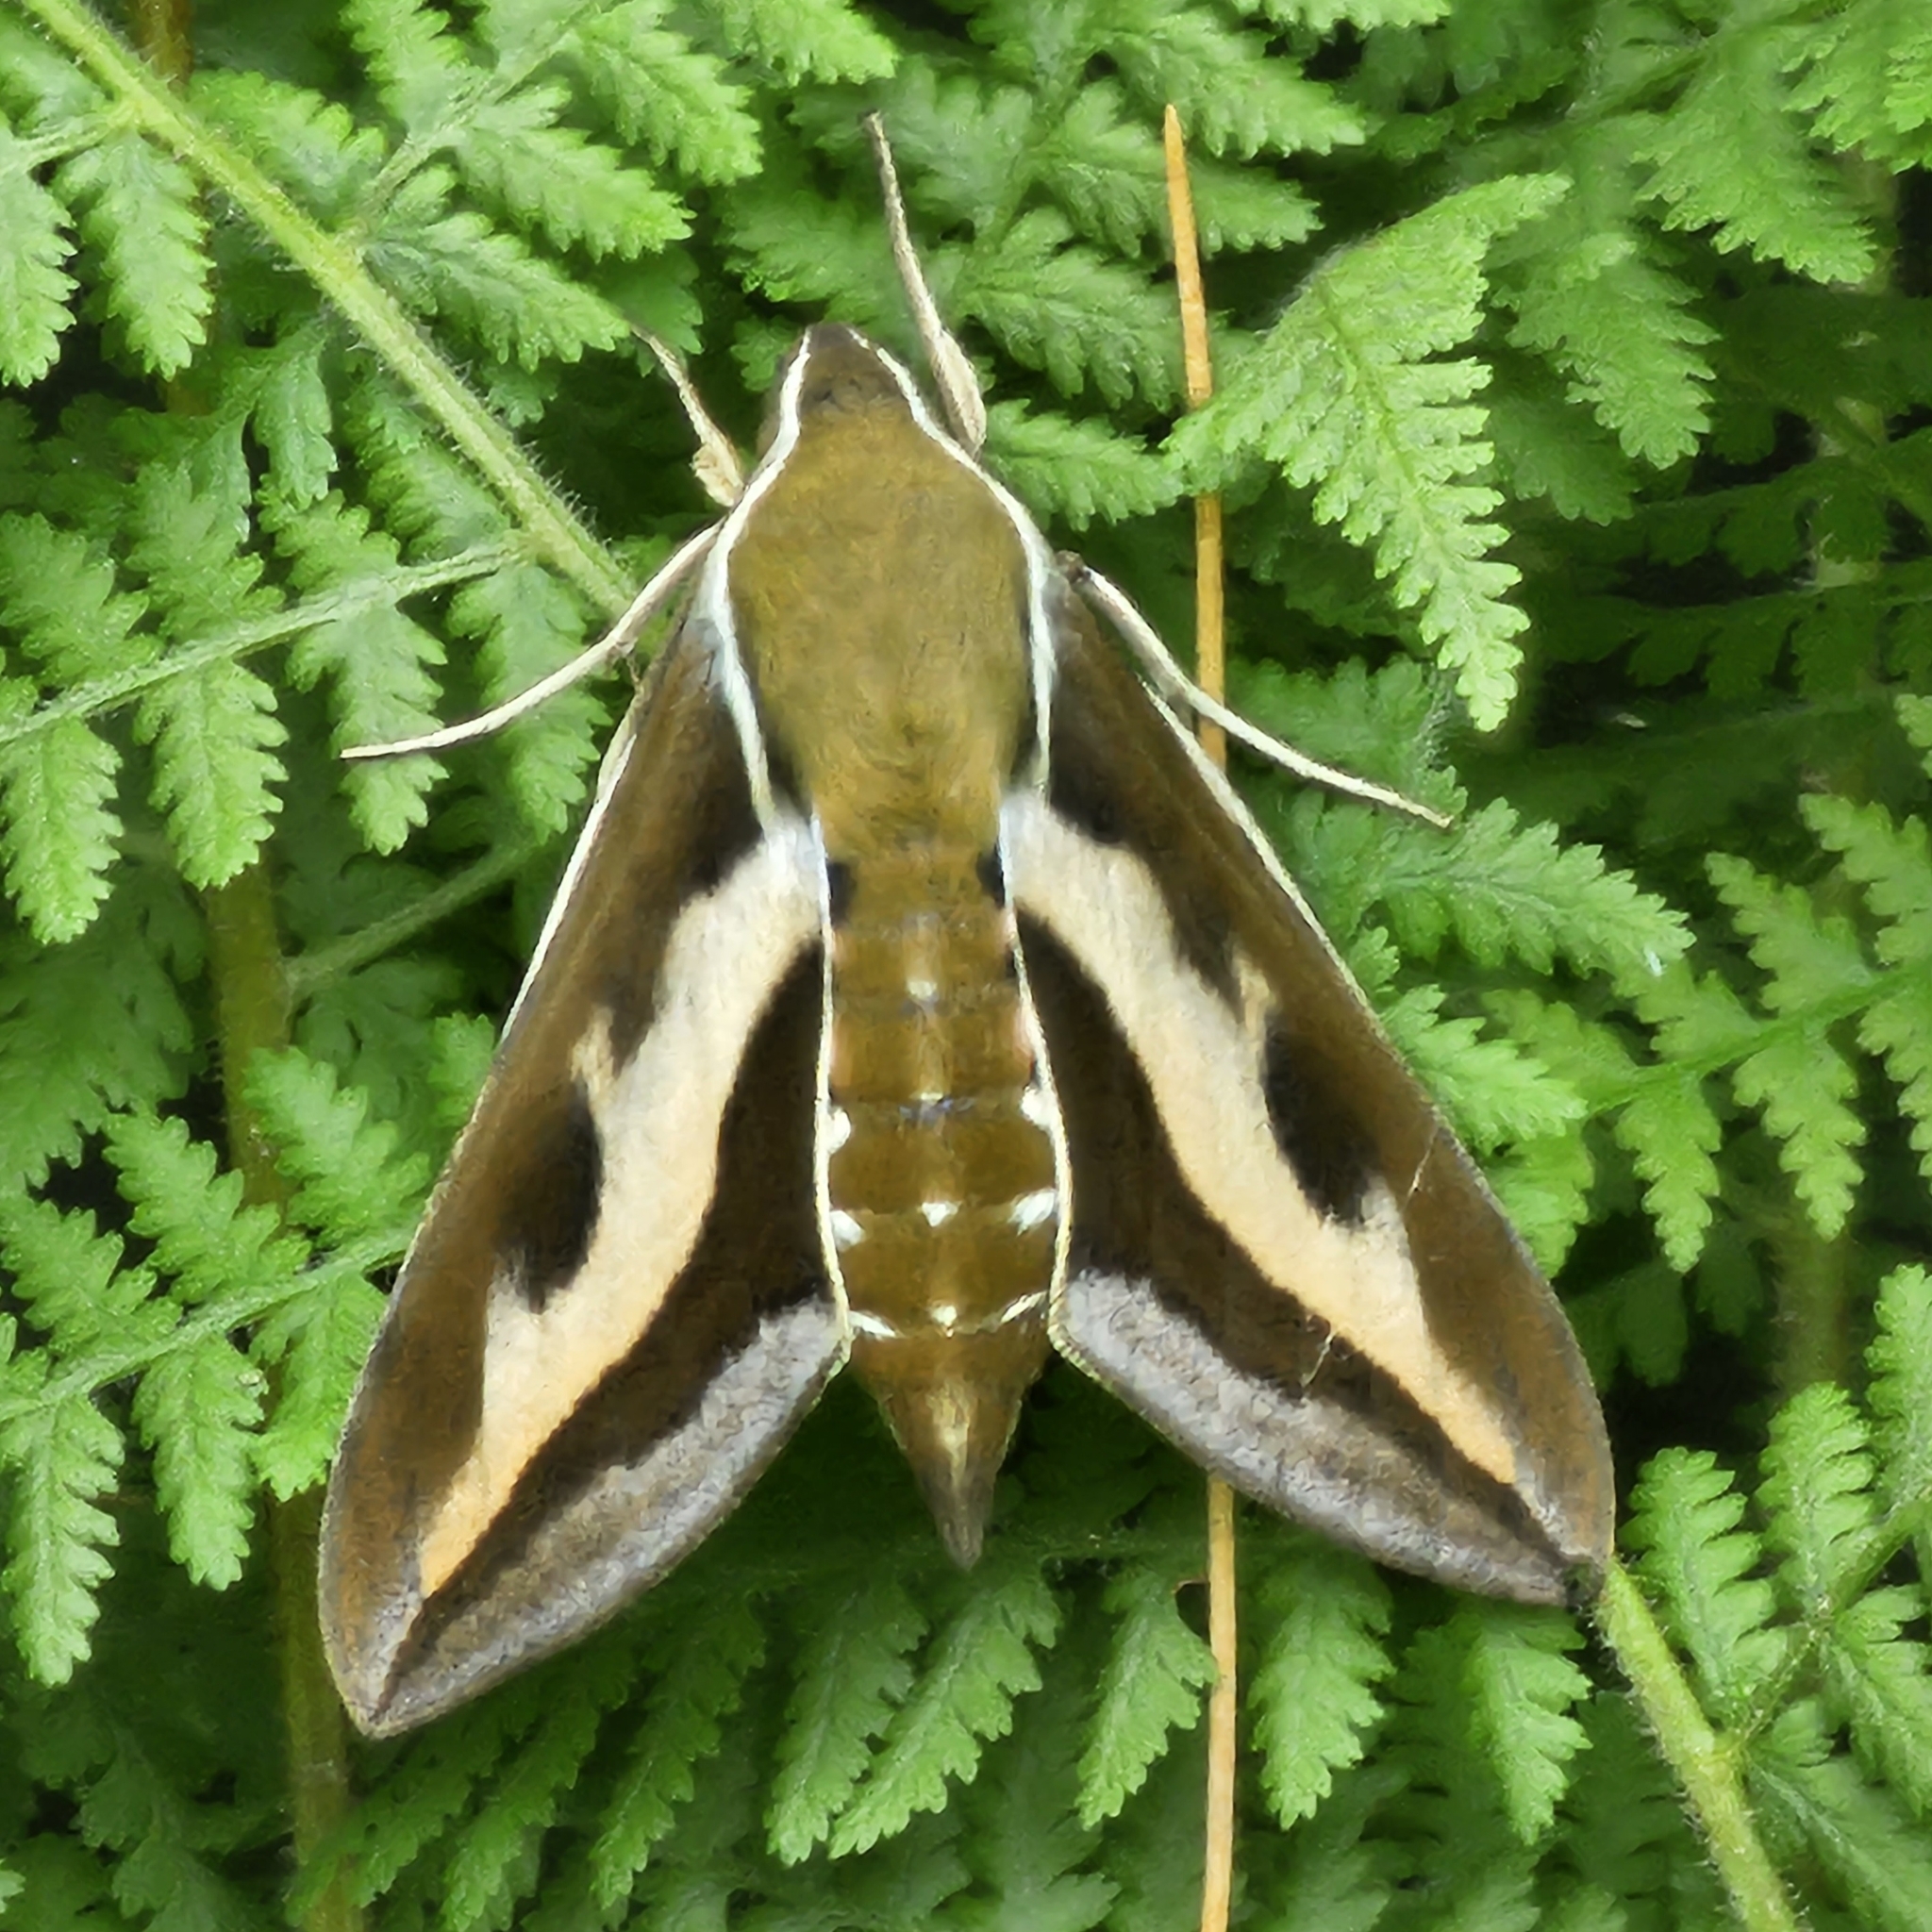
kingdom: Animalia
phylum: Arthropoda
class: Insecta
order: Lepidoptera
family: Sphingidae
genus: Hyles
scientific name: Hyles gallii
